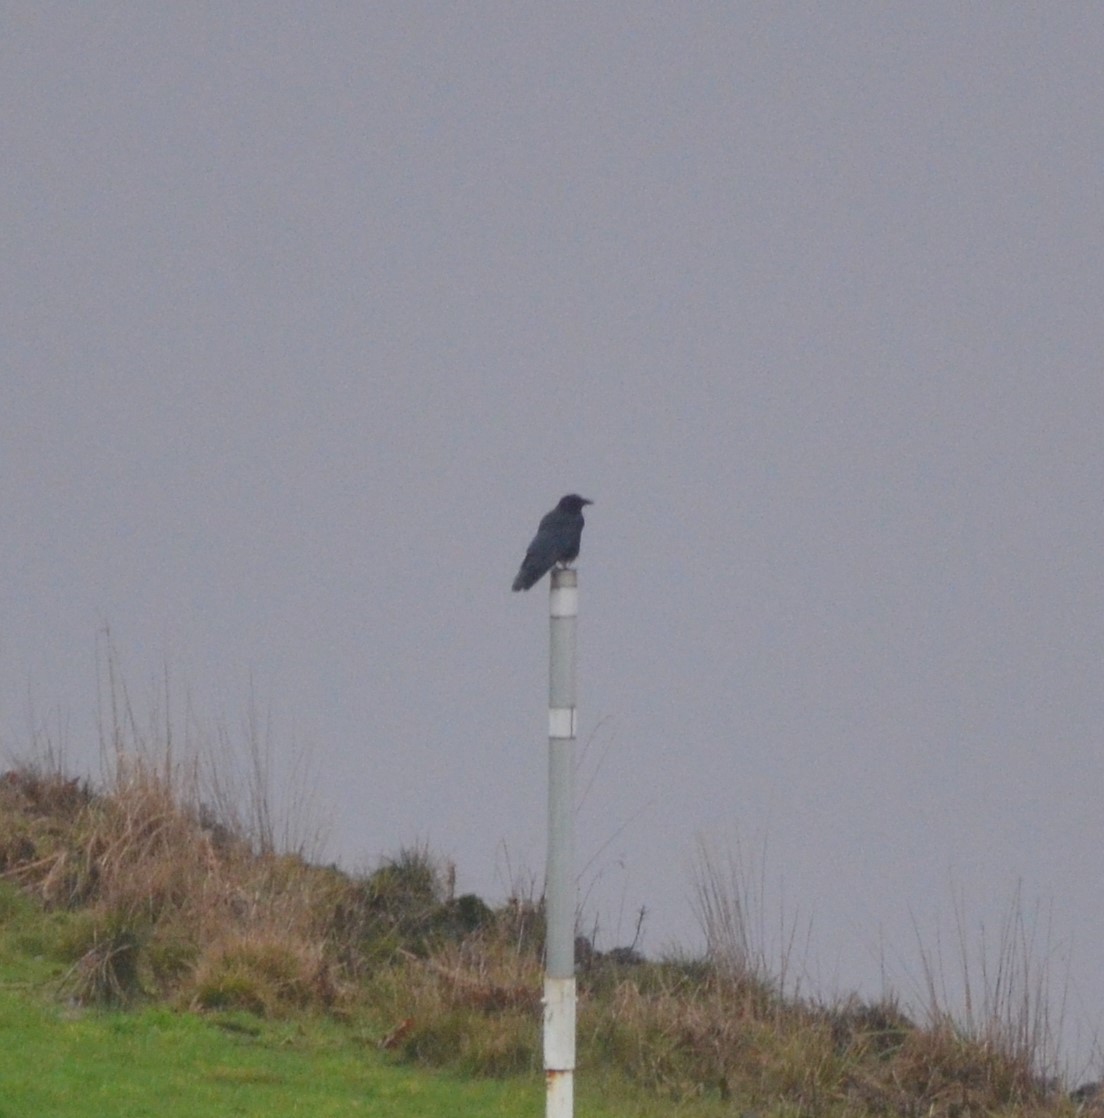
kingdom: Animalia
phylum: Chordata
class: Aves
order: Passeriformes
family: Corvidae
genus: Corvus
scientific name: Corvus corone
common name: Carrion crow
